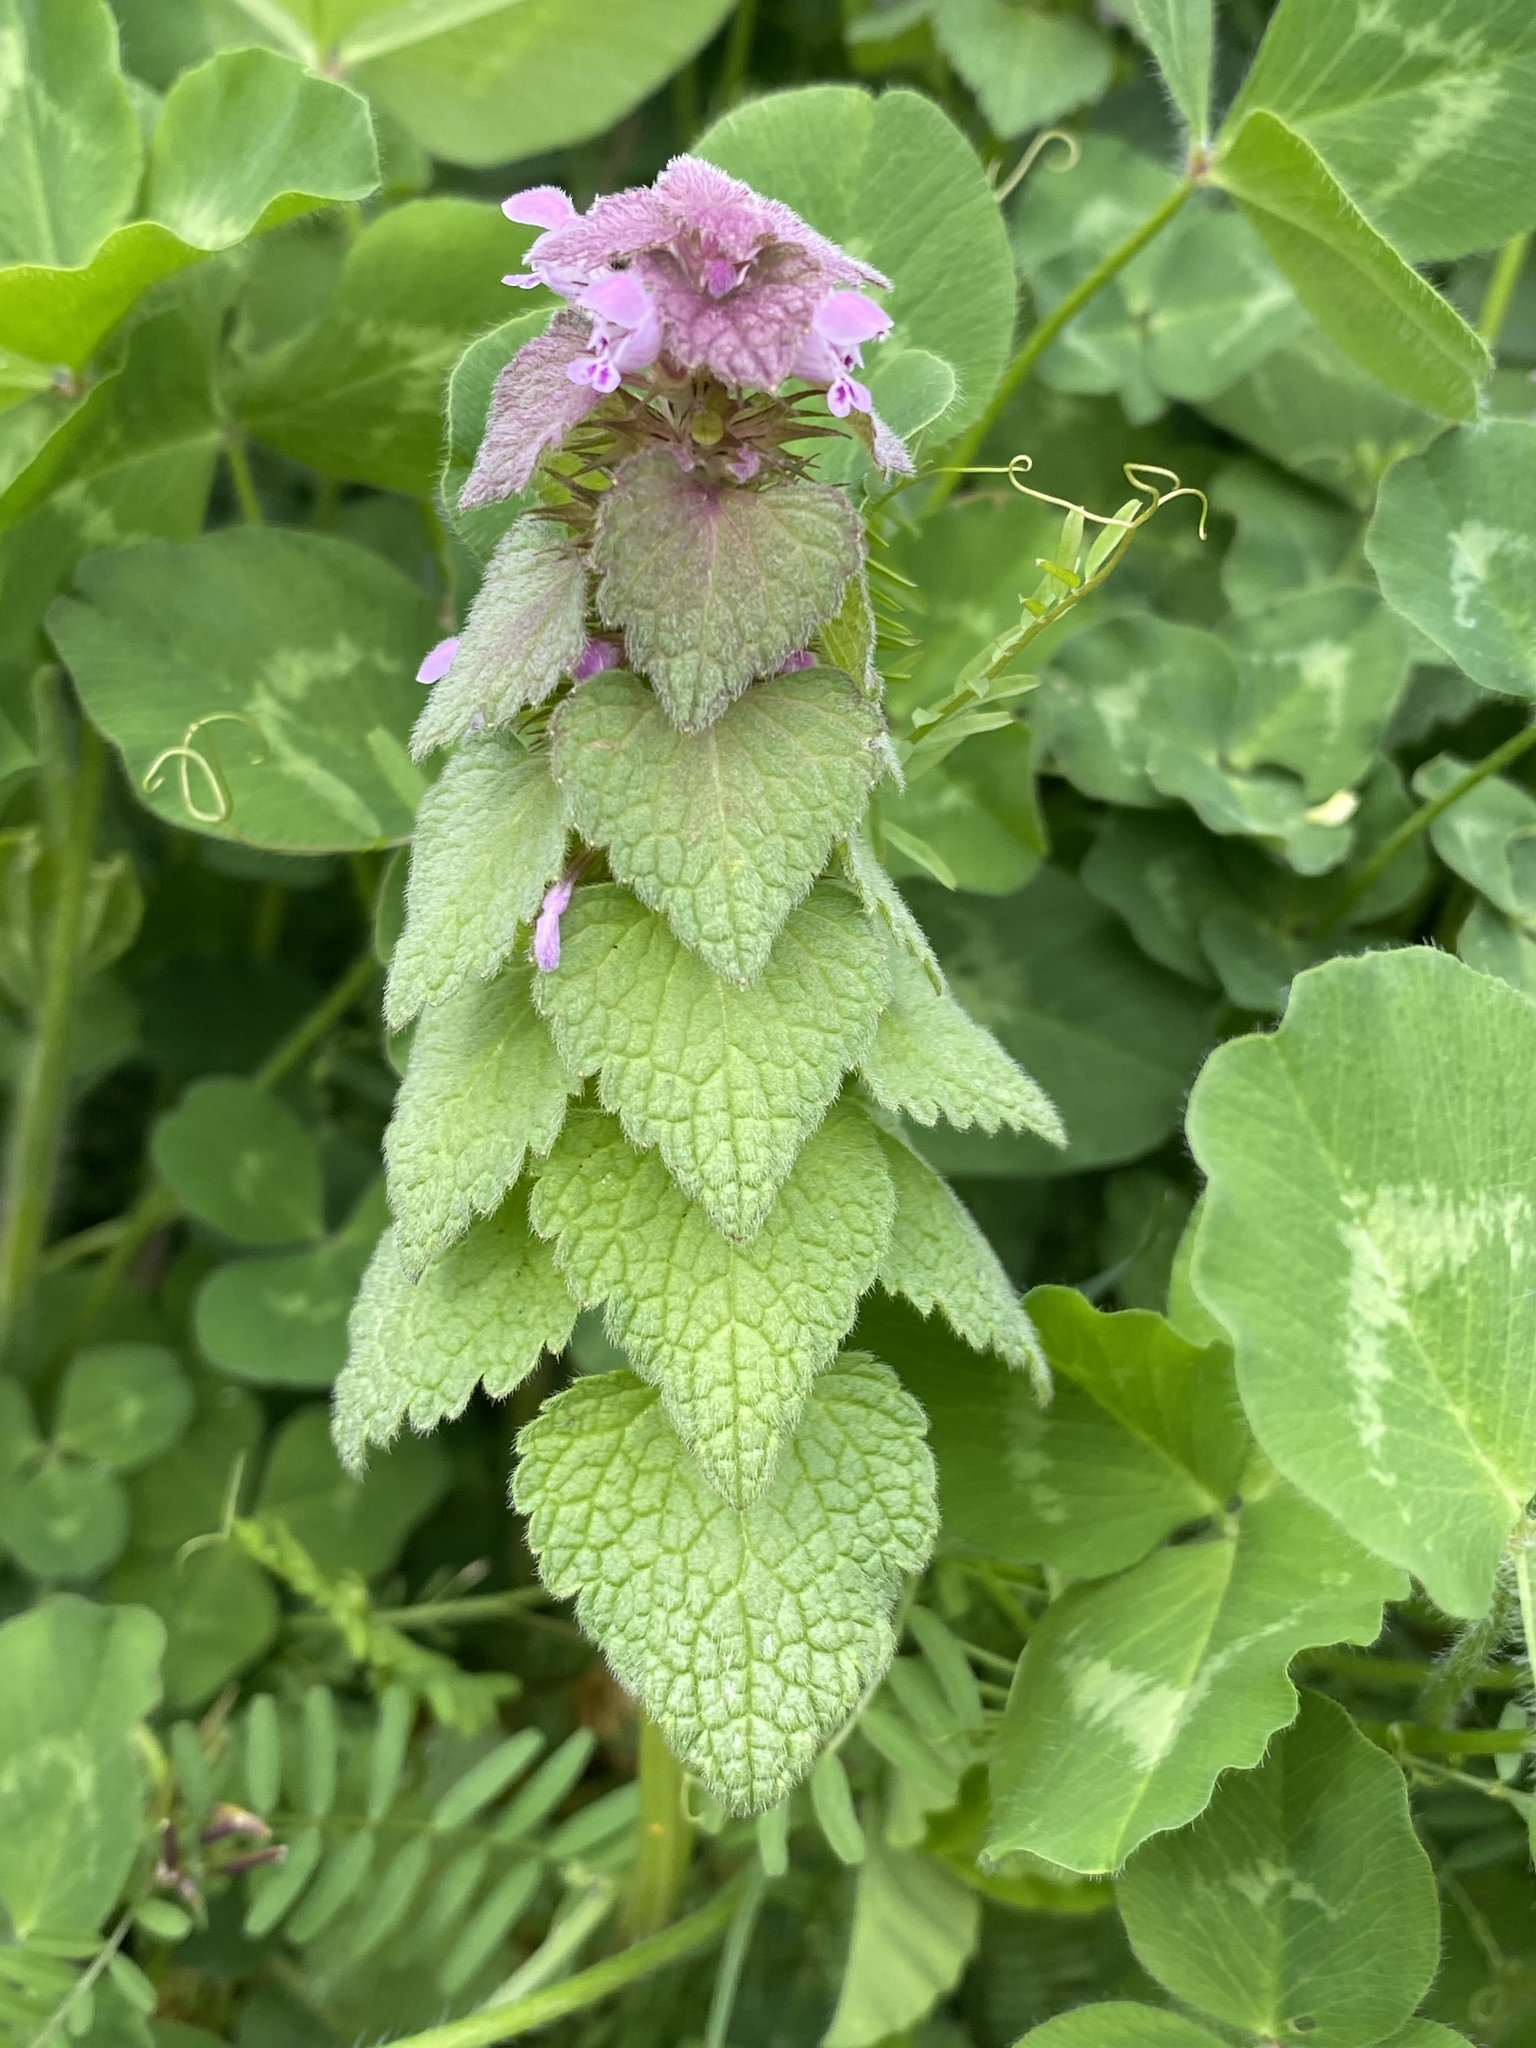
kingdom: Plantae
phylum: Tracheophyta
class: Magnoliopsida
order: Lamiales
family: Lamiaceae
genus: Lamium
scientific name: Lamium purpureum
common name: Red dead-nettle
